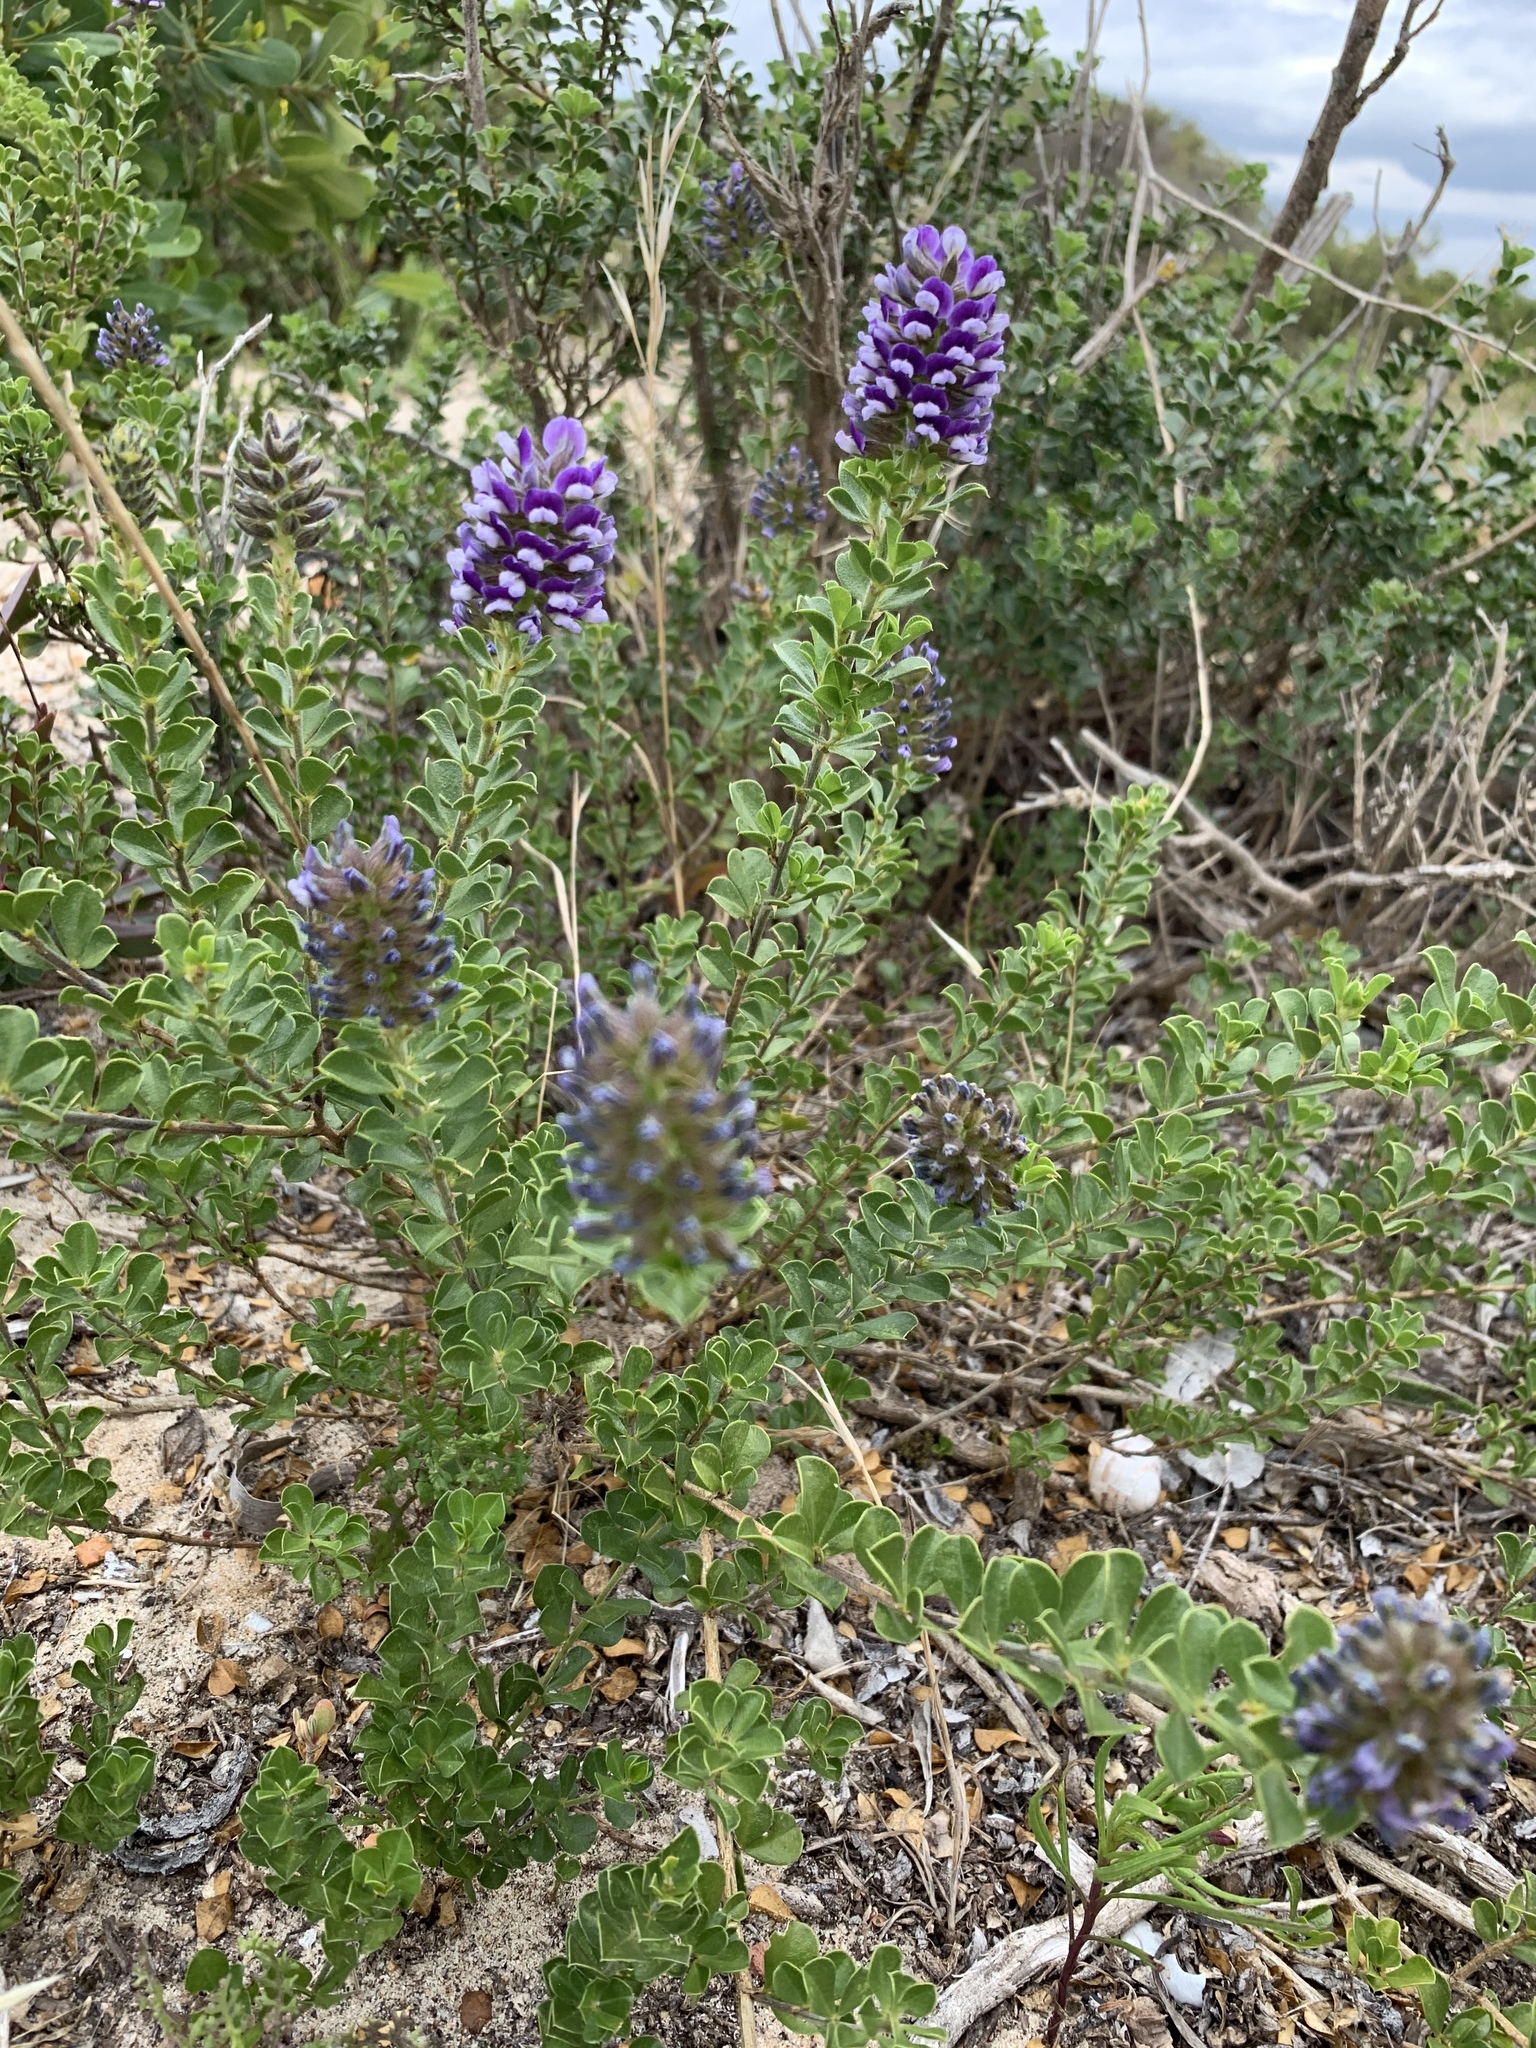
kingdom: Plantae
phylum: Tracheophyta
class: Magnoliopsida
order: Fabales
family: Fabaceae
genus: Psoralea
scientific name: Psoralea bracteolata
